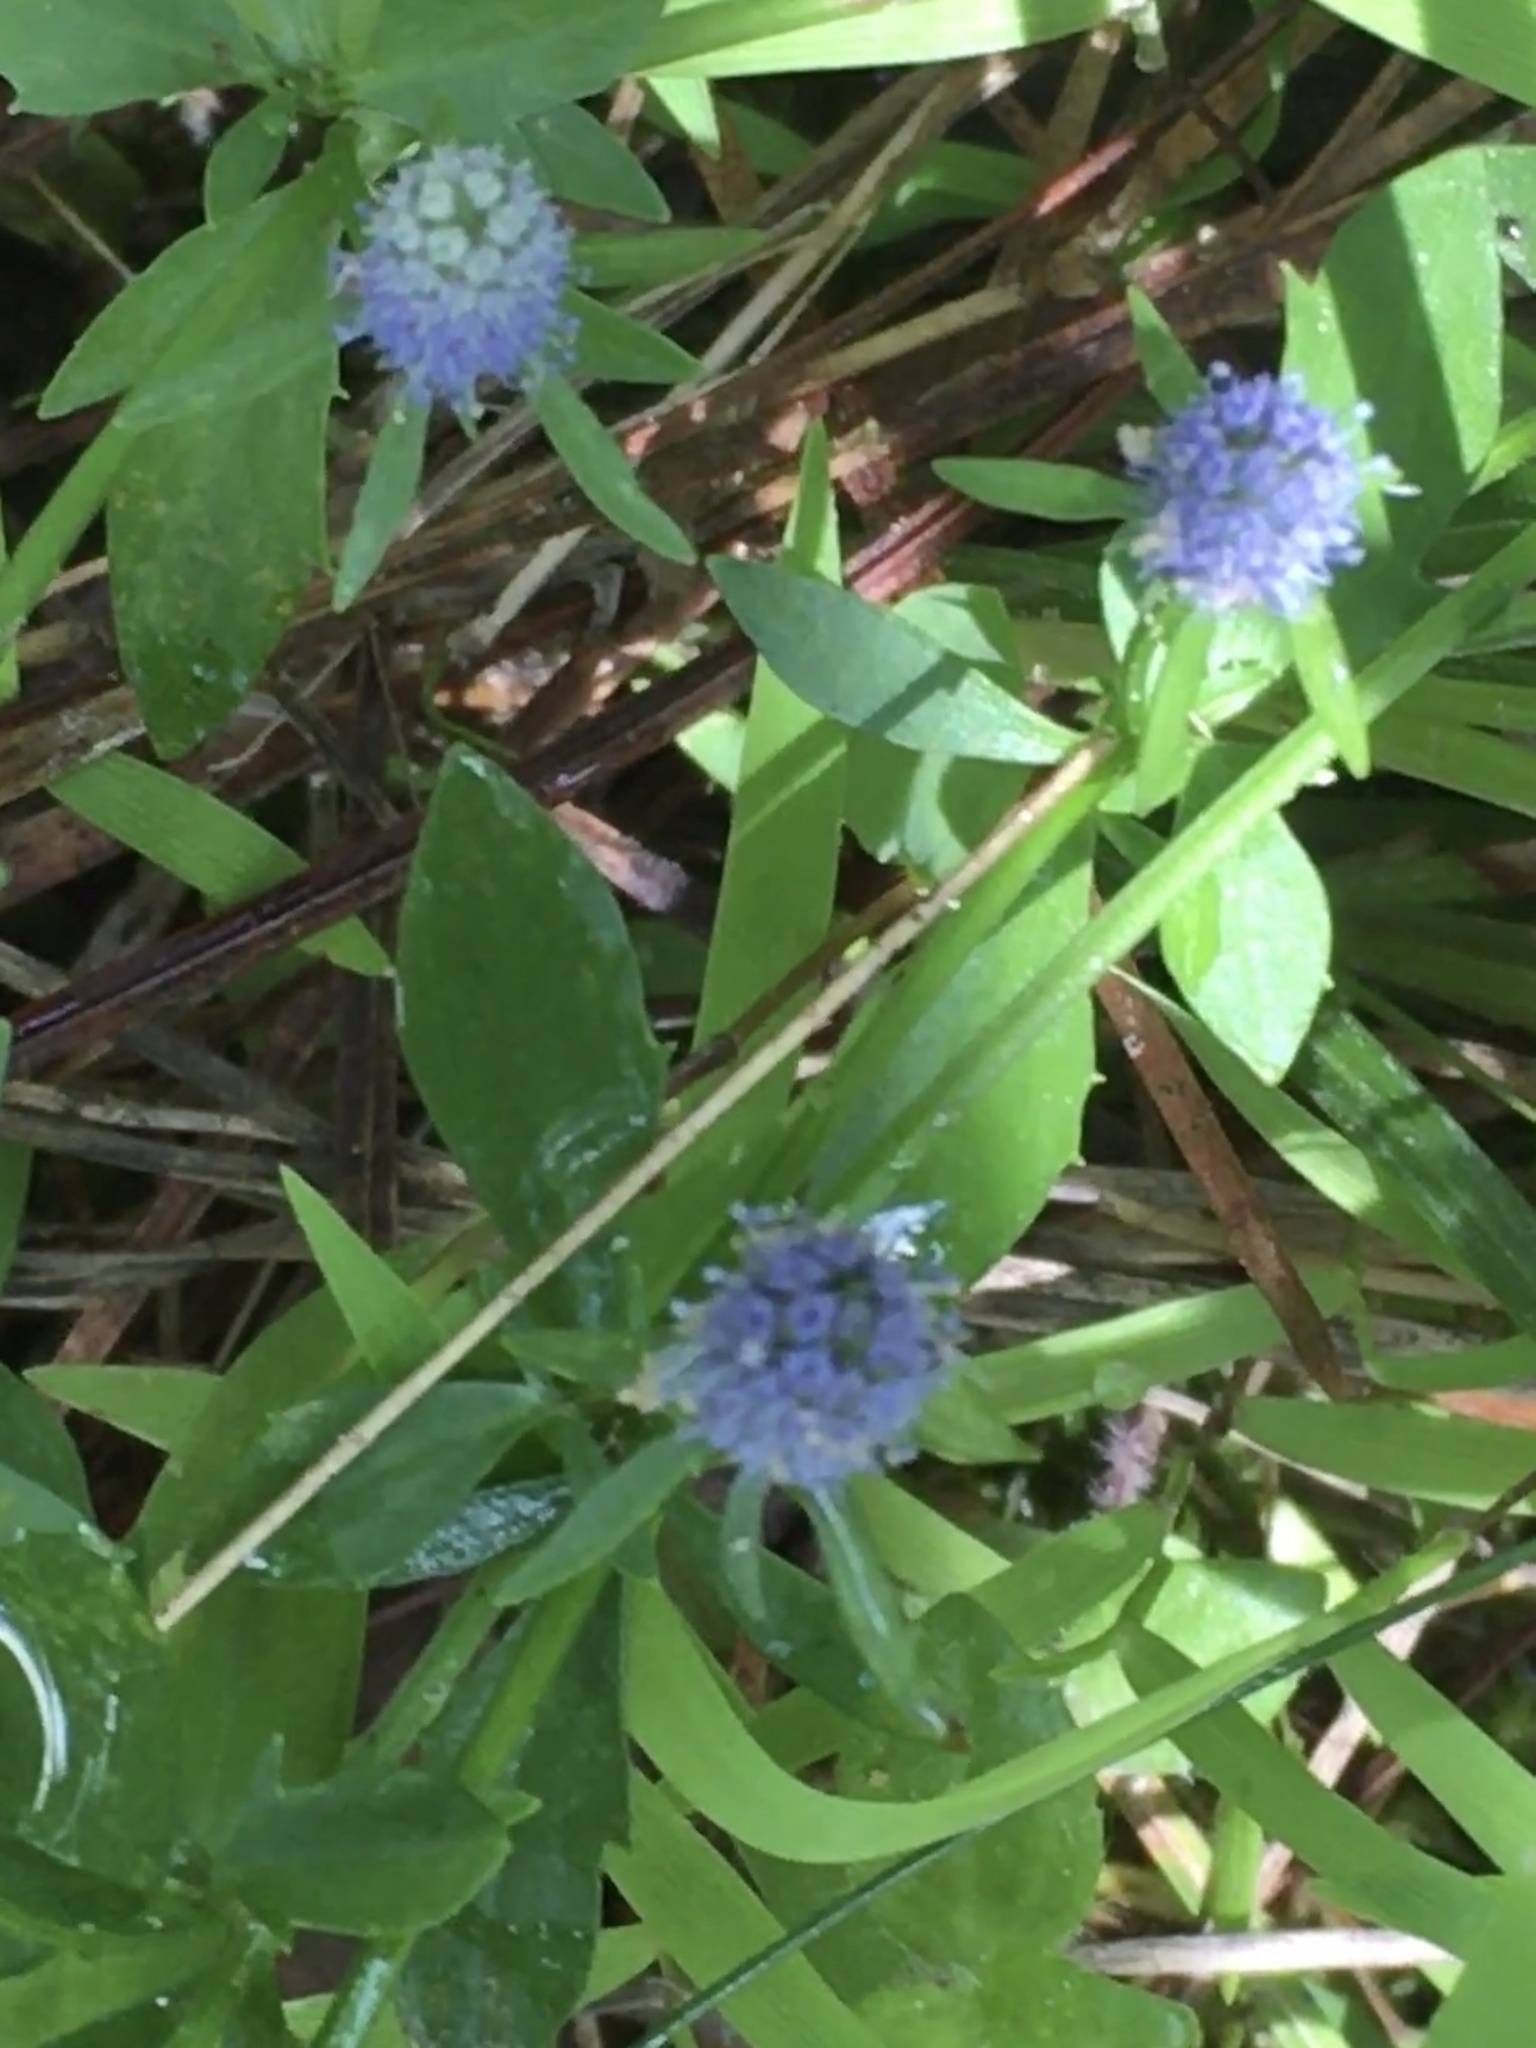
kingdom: Plantae
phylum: Tracheophyta
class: Magnoliopsida
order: Apiales
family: Apiaceae
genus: Eryngium
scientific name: Eryngium prostratum
